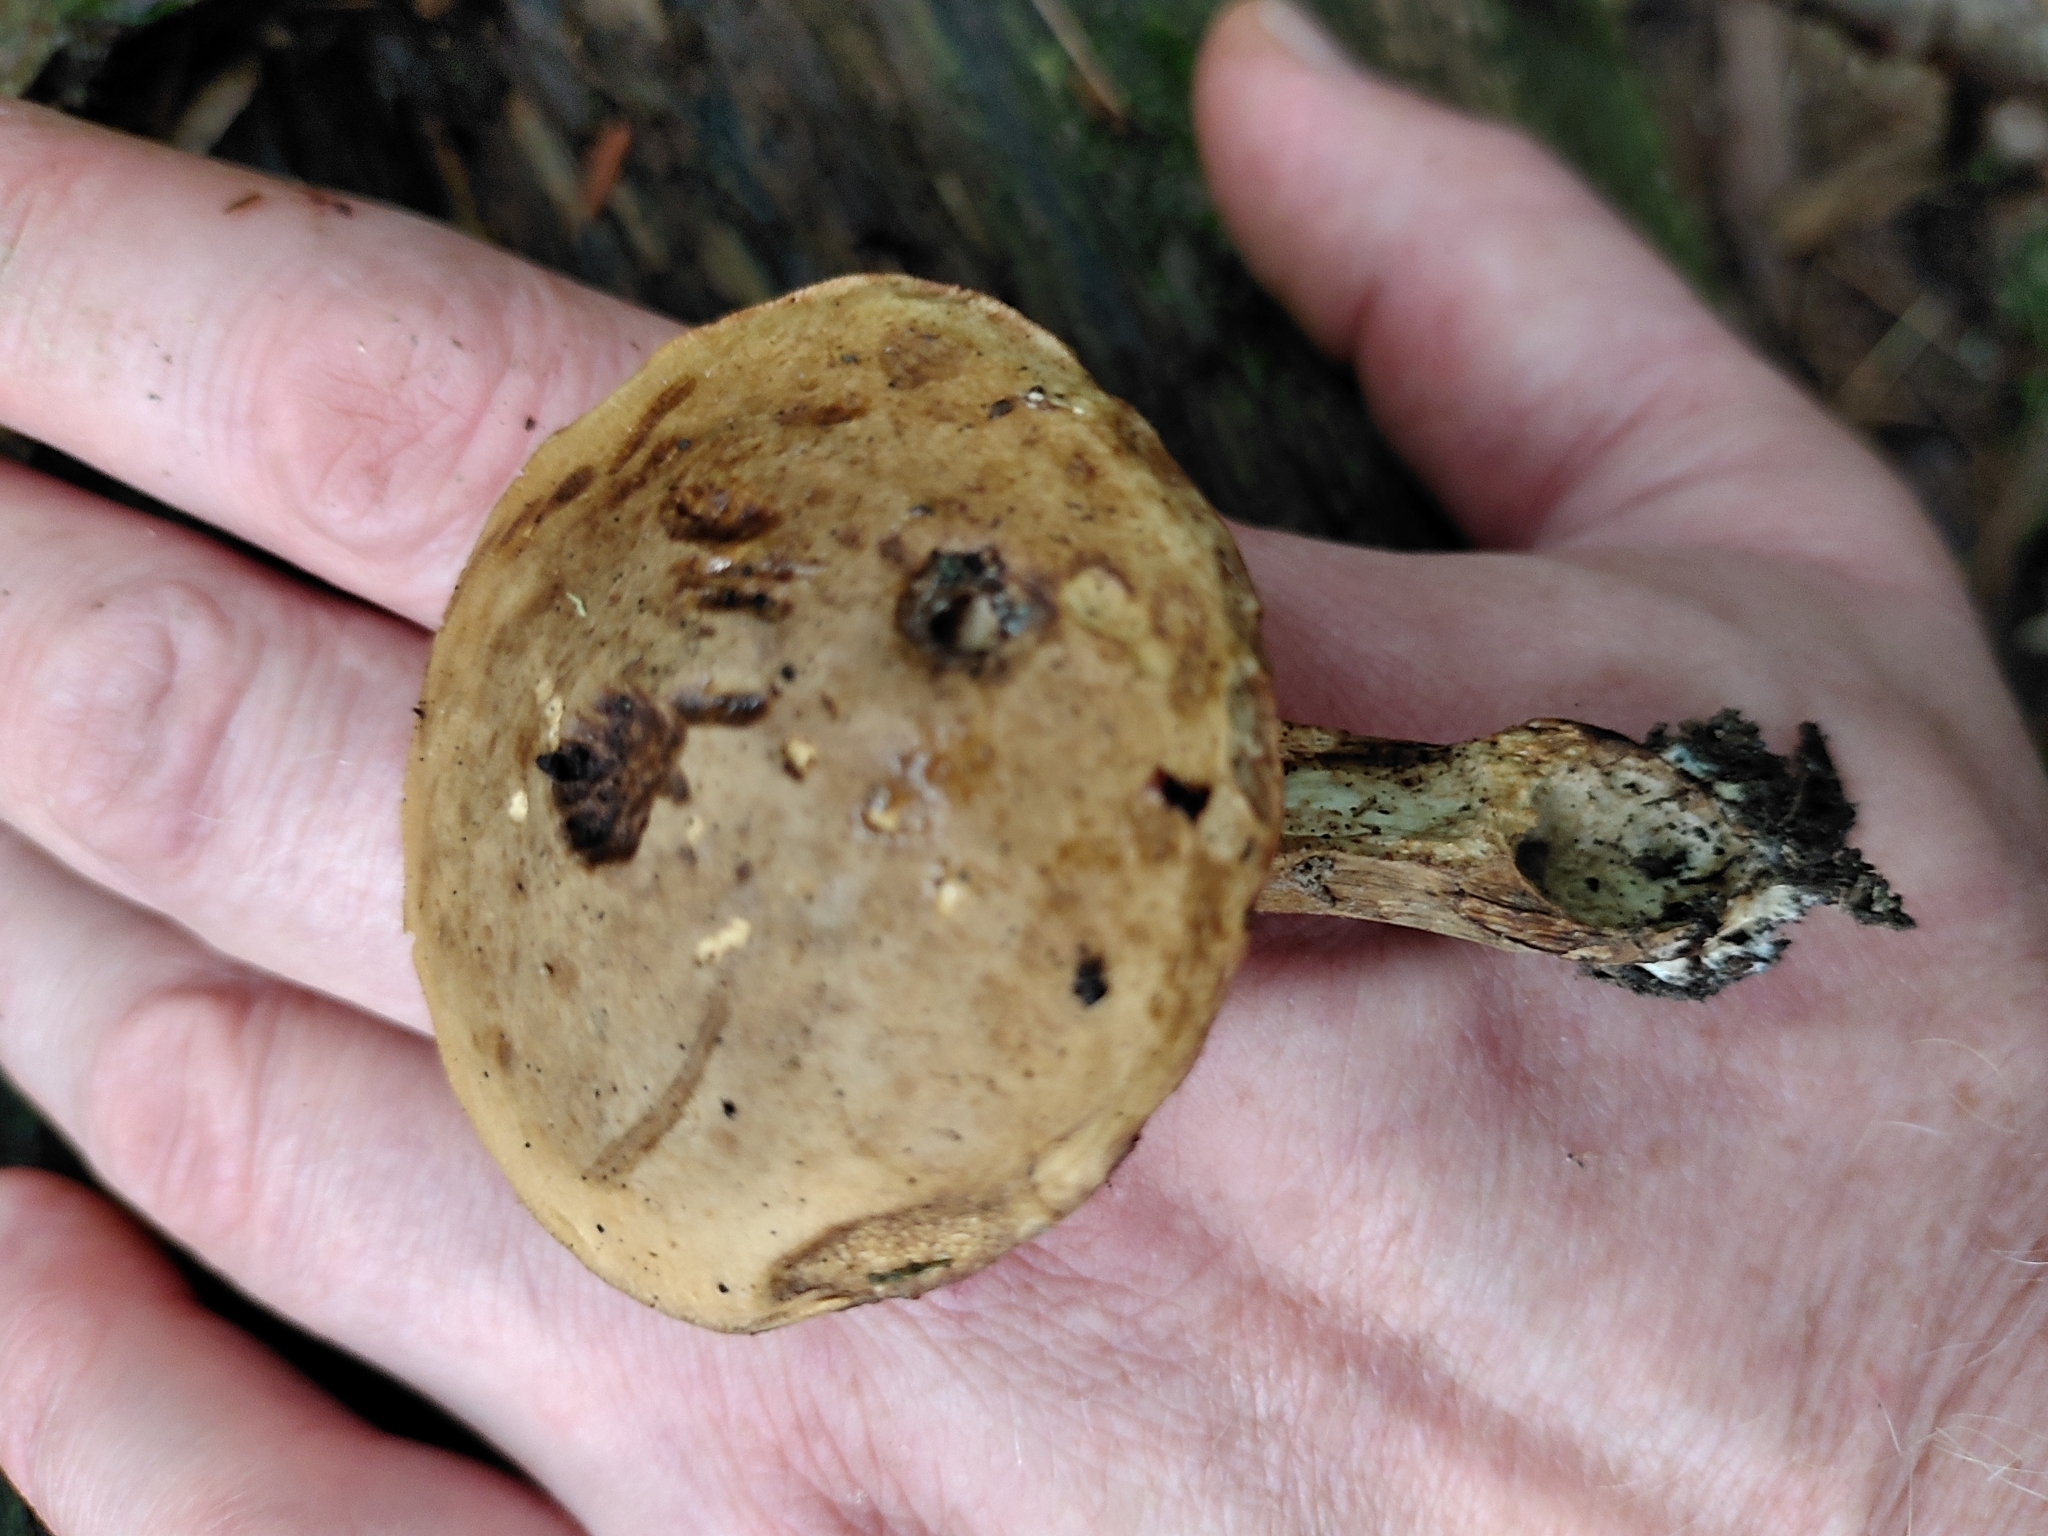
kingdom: Fungi
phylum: Basidiomycota
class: Agaricomycetes
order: Boletales
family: Boletaceae
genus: Tylopilus
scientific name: Tylopilus felleus
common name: Bitter bolete
